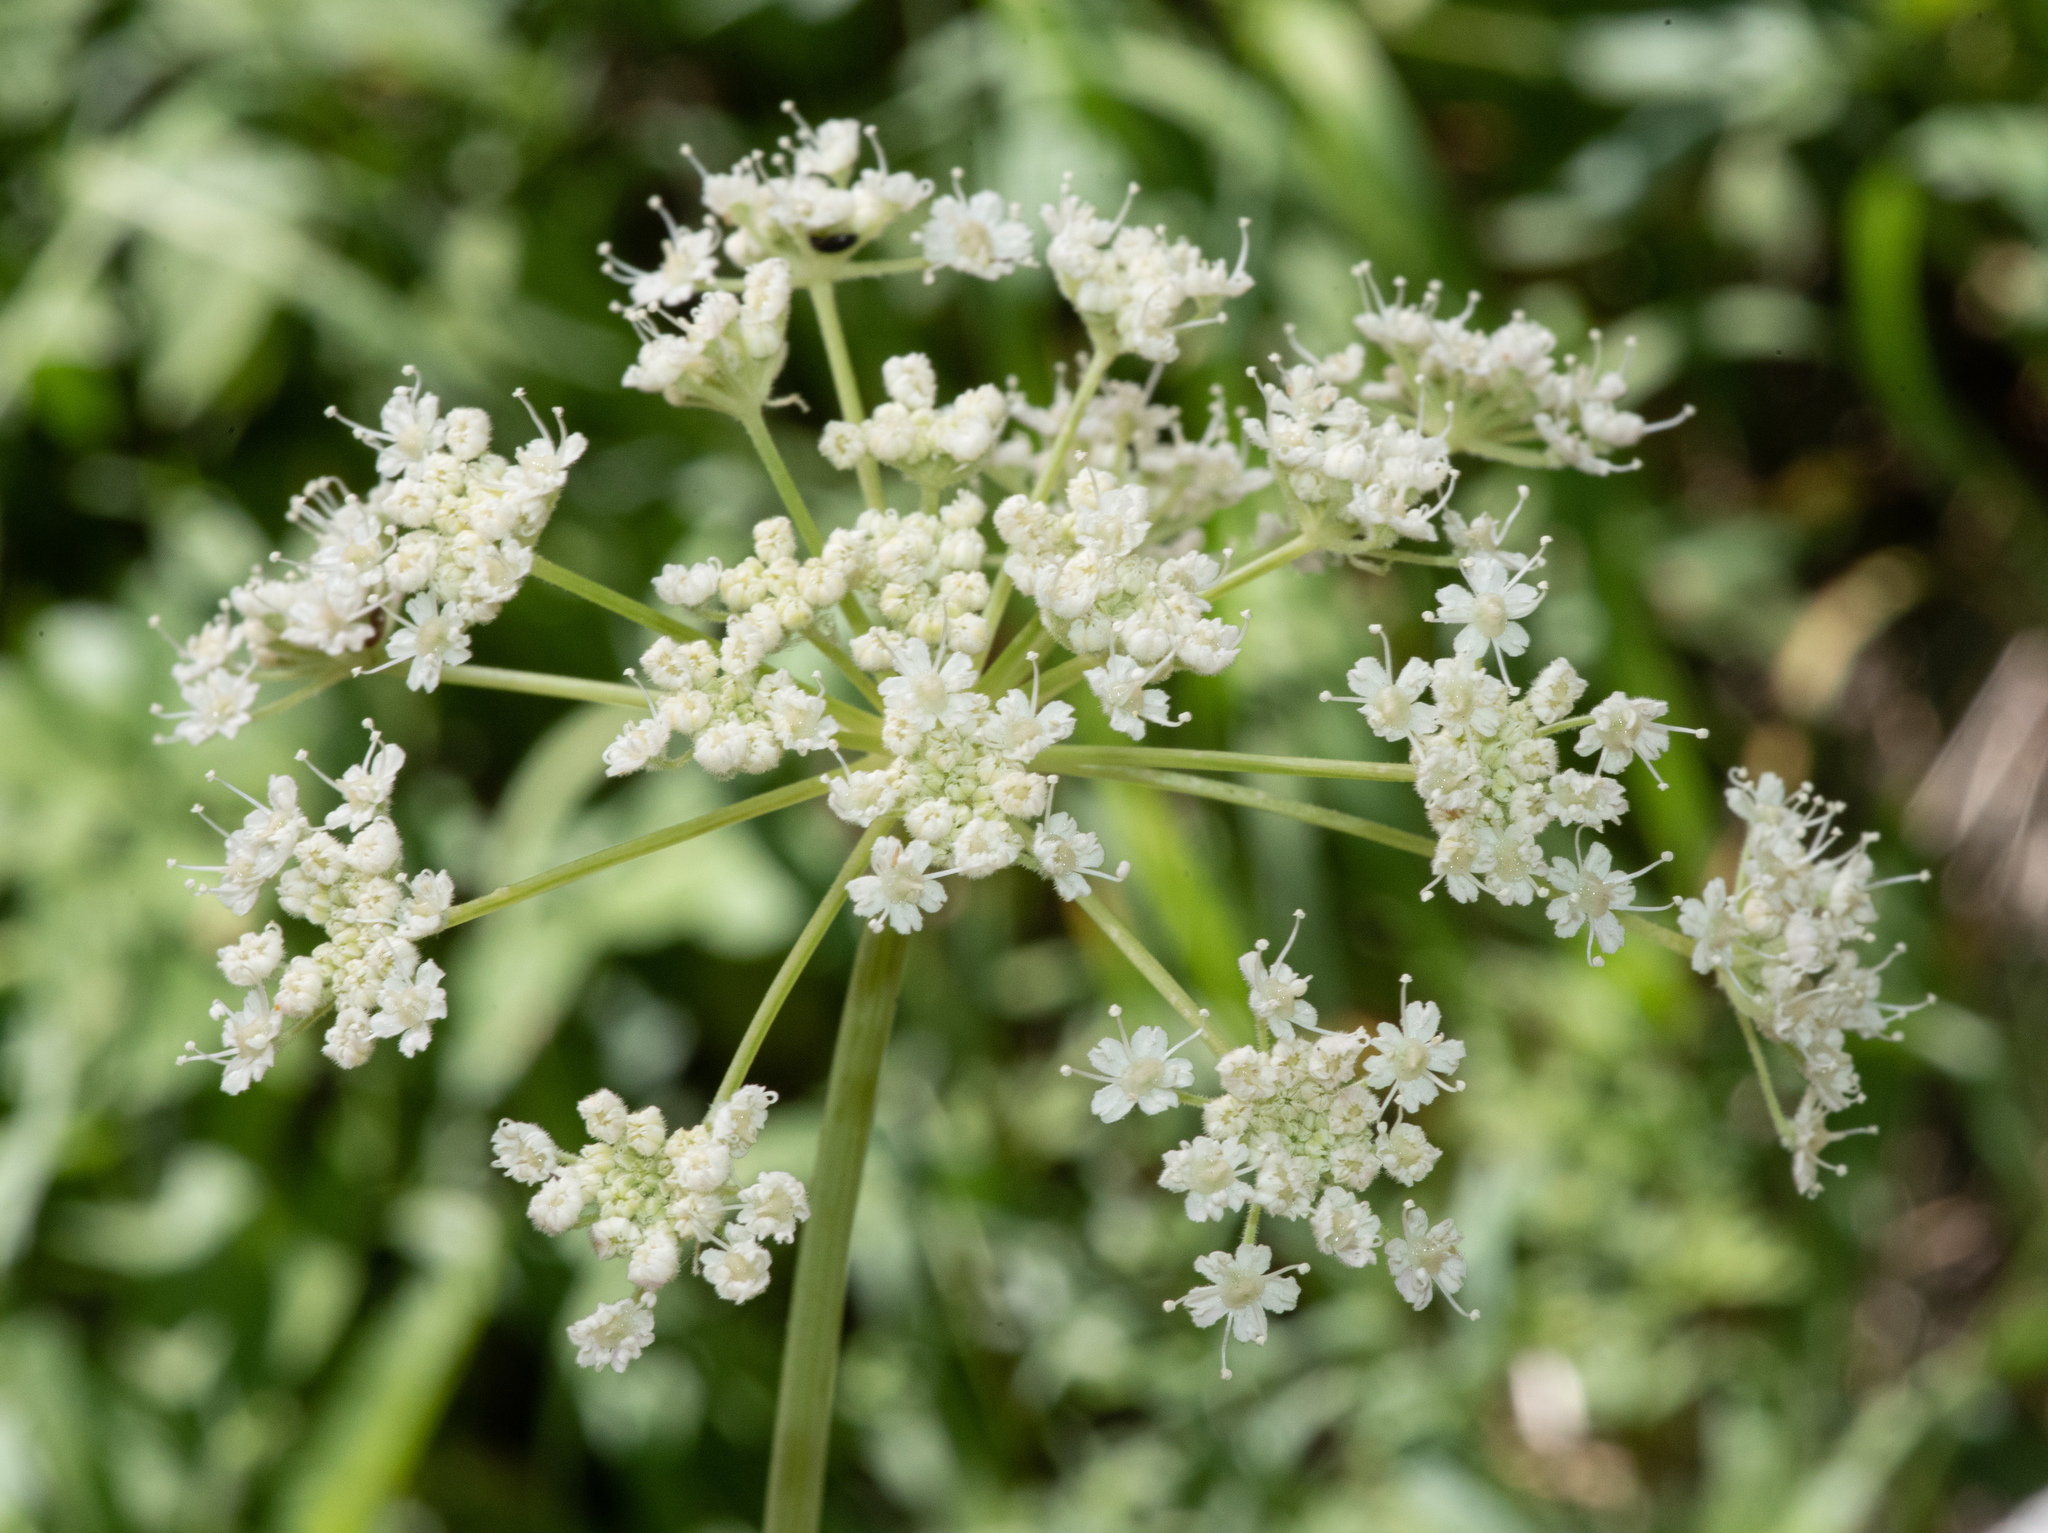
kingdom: Plantae
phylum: Tracheophyta
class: Magnoliopsida
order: Apiales
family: Apiaceae
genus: Angelica
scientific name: Angelica breweri
